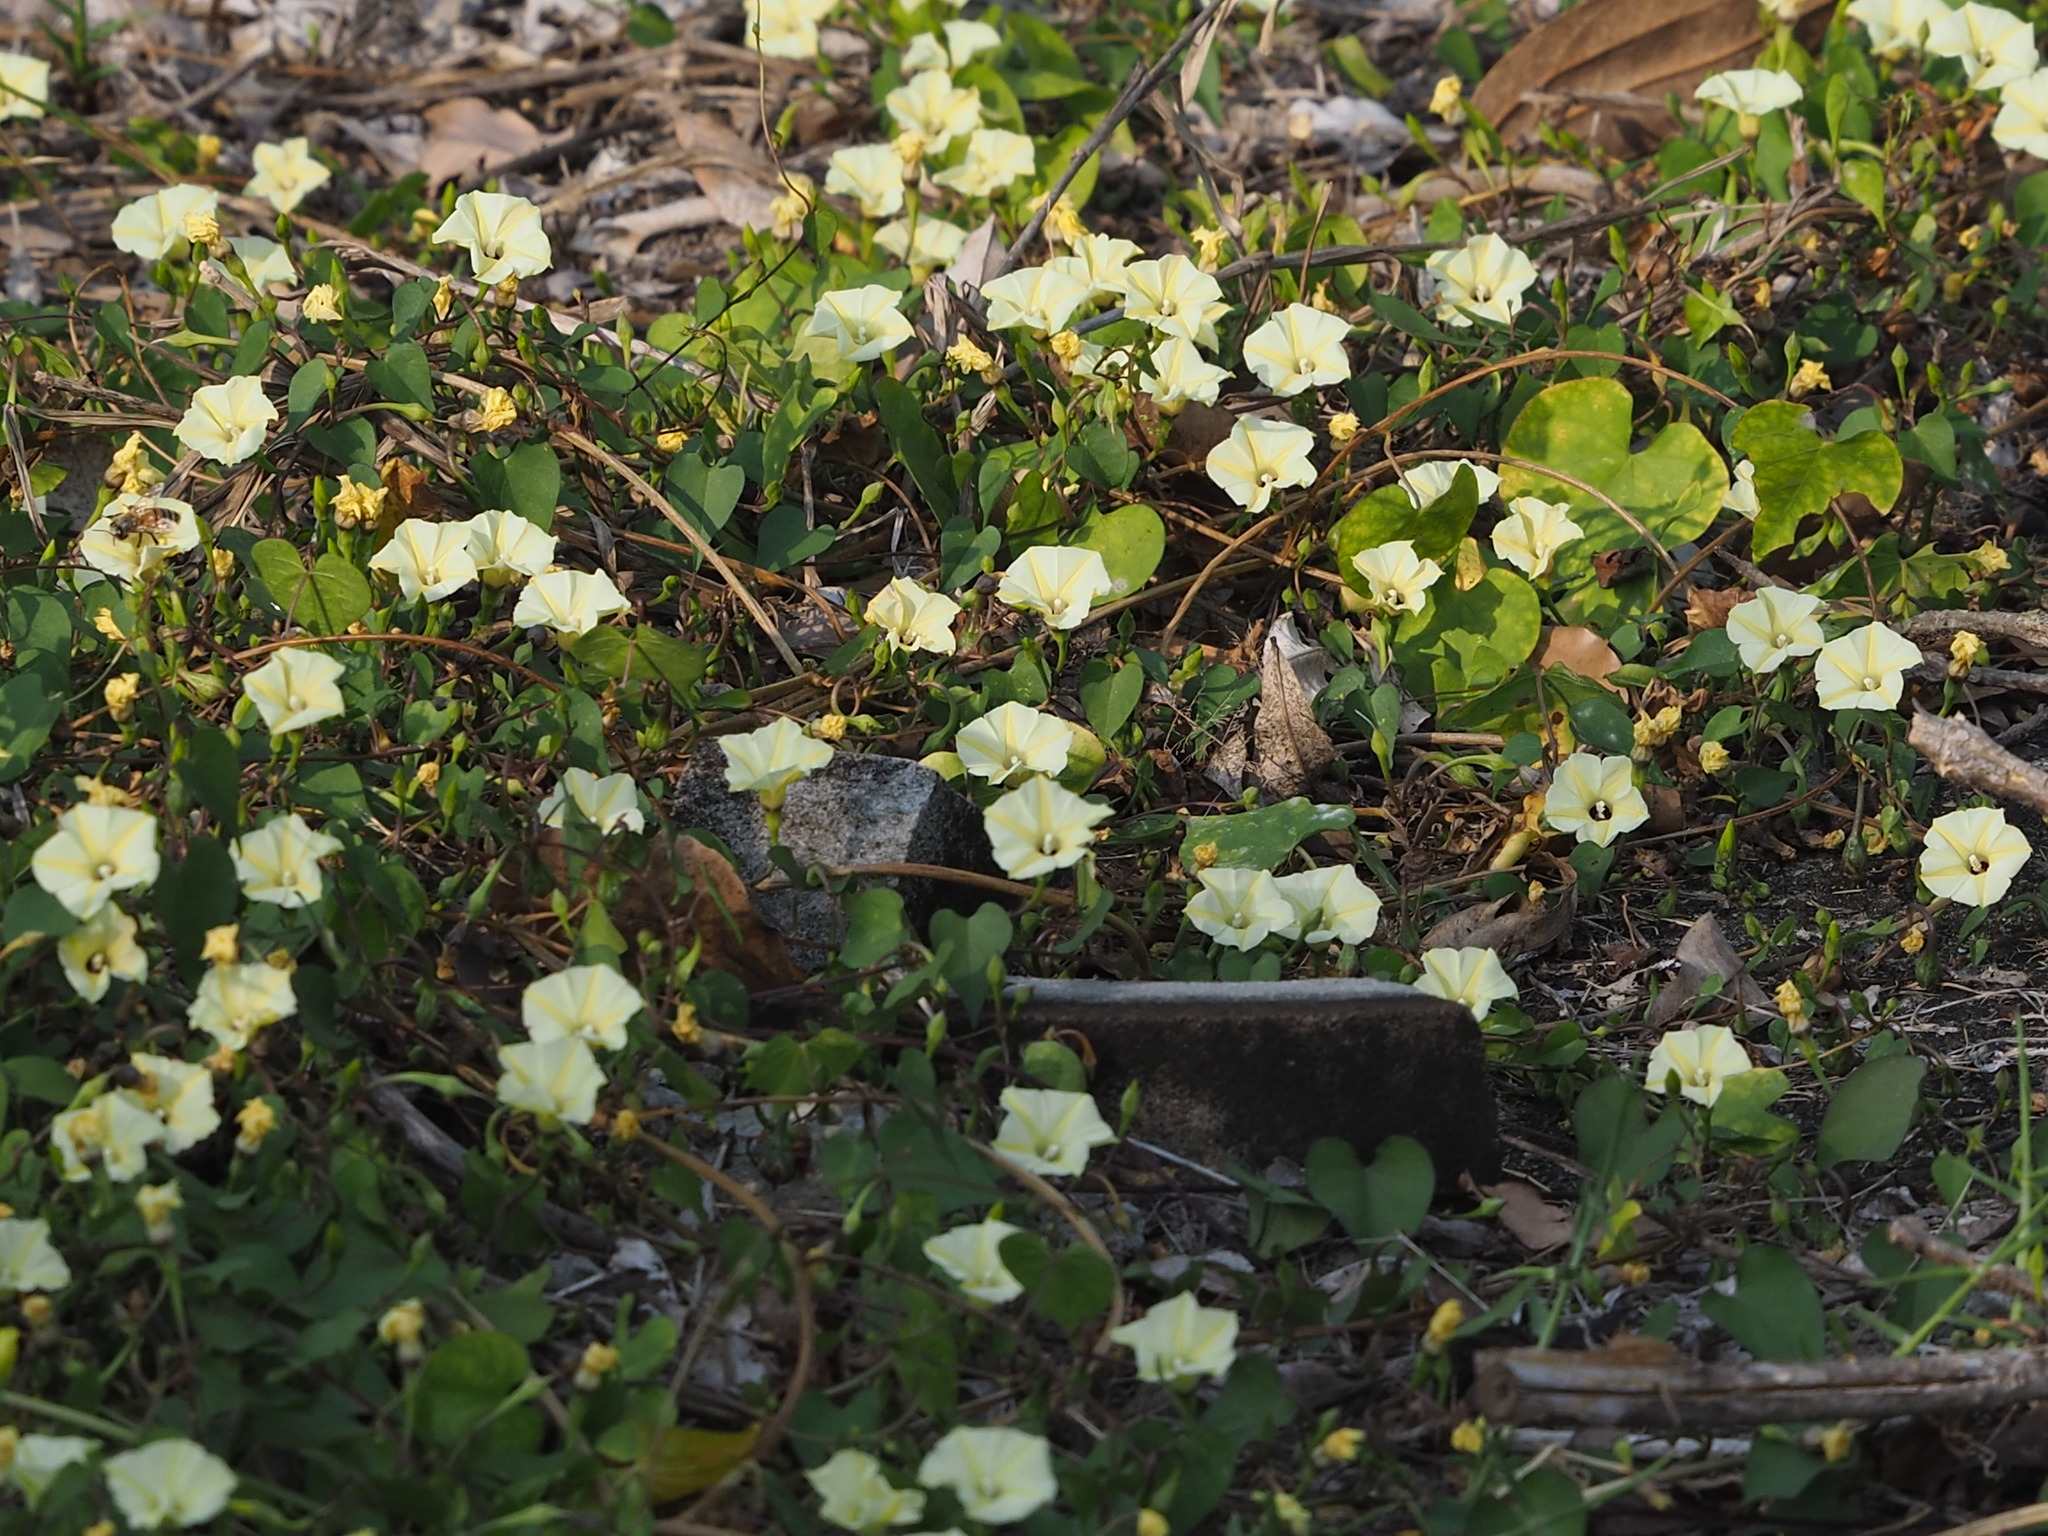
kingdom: Plantae
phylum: Tracheophyta
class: Magnoliopsida
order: Solanales
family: Convolvulaceae
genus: Ipomoea
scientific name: Ipomoea obscura
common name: Obscure morning-glory
